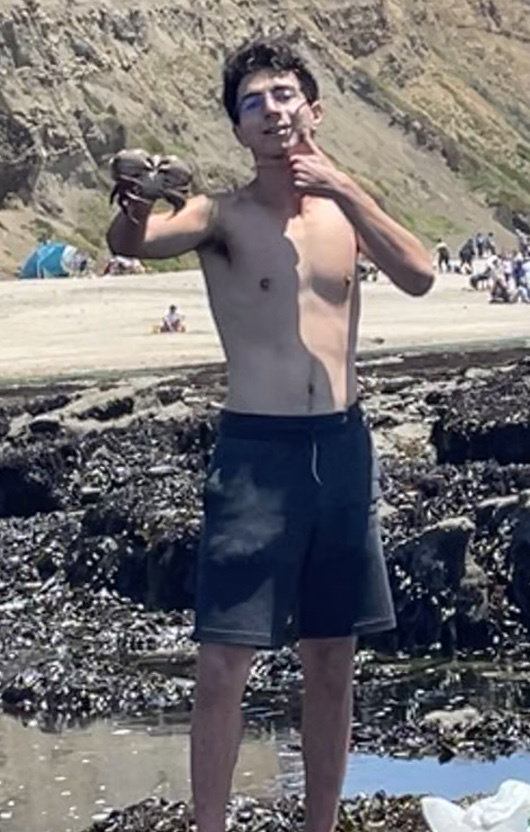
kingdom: Animalia
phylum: Arthropoda
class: Malacostraca
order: Decapoda
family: Cancridae
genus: Romaleon
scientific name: Romaleon antennarium
